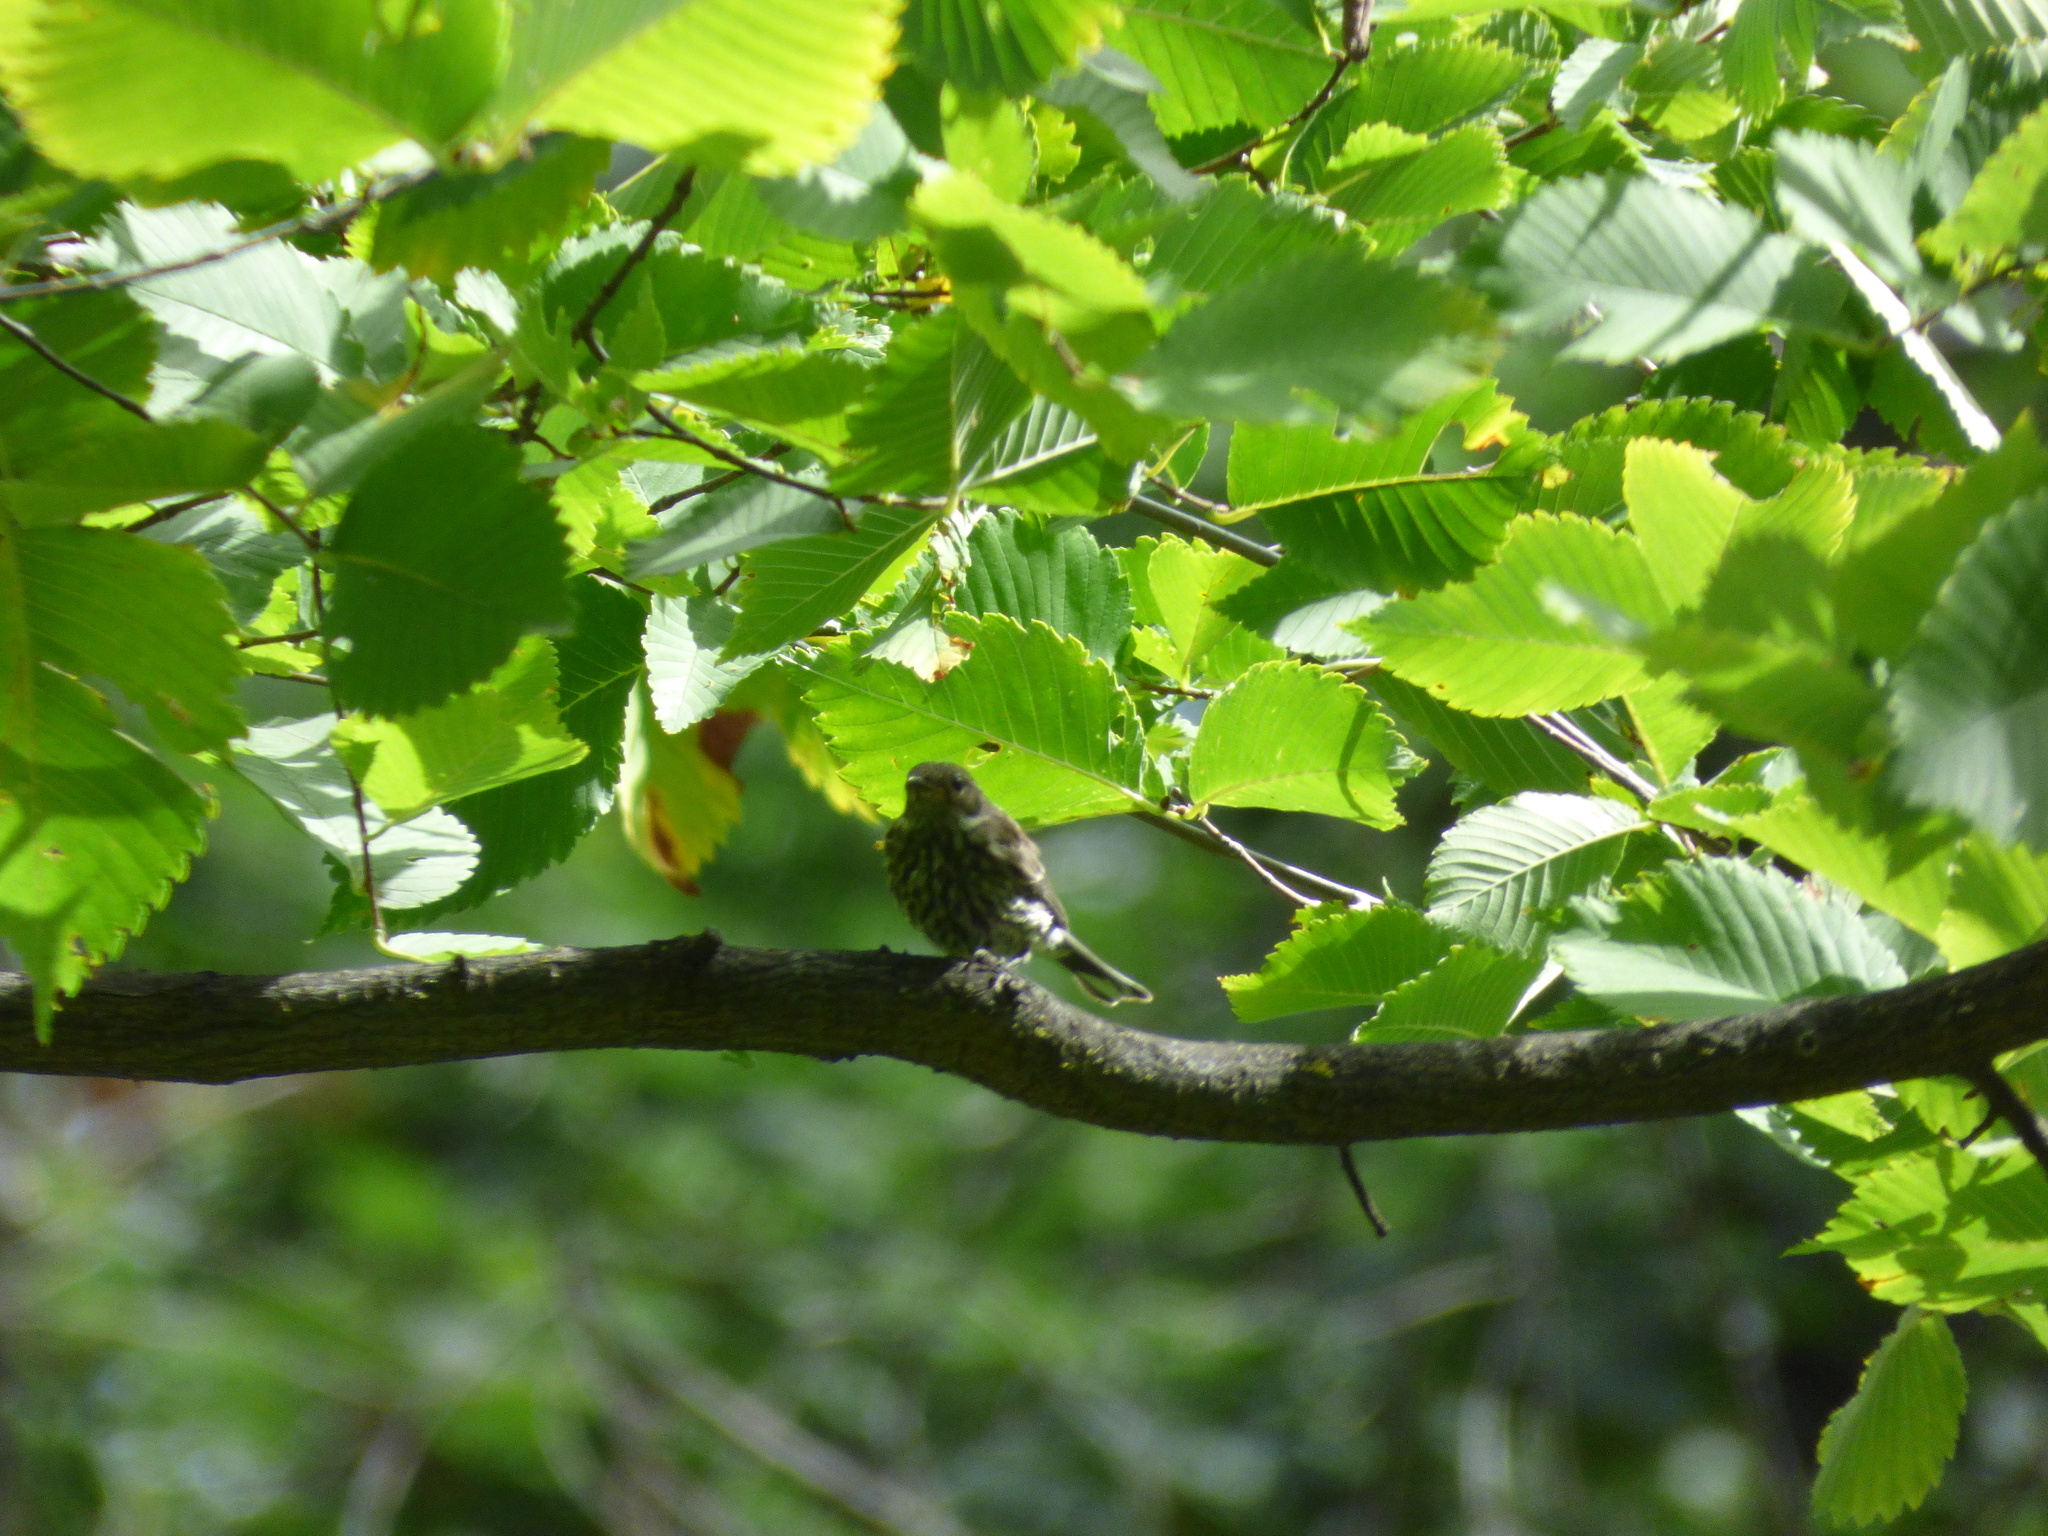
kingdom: Animalia
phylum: Chordata
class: Aves
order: Passeriformes
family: Parulidae
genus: Setophaga
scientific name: Setophaga tigrina
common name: Cape may warbler
